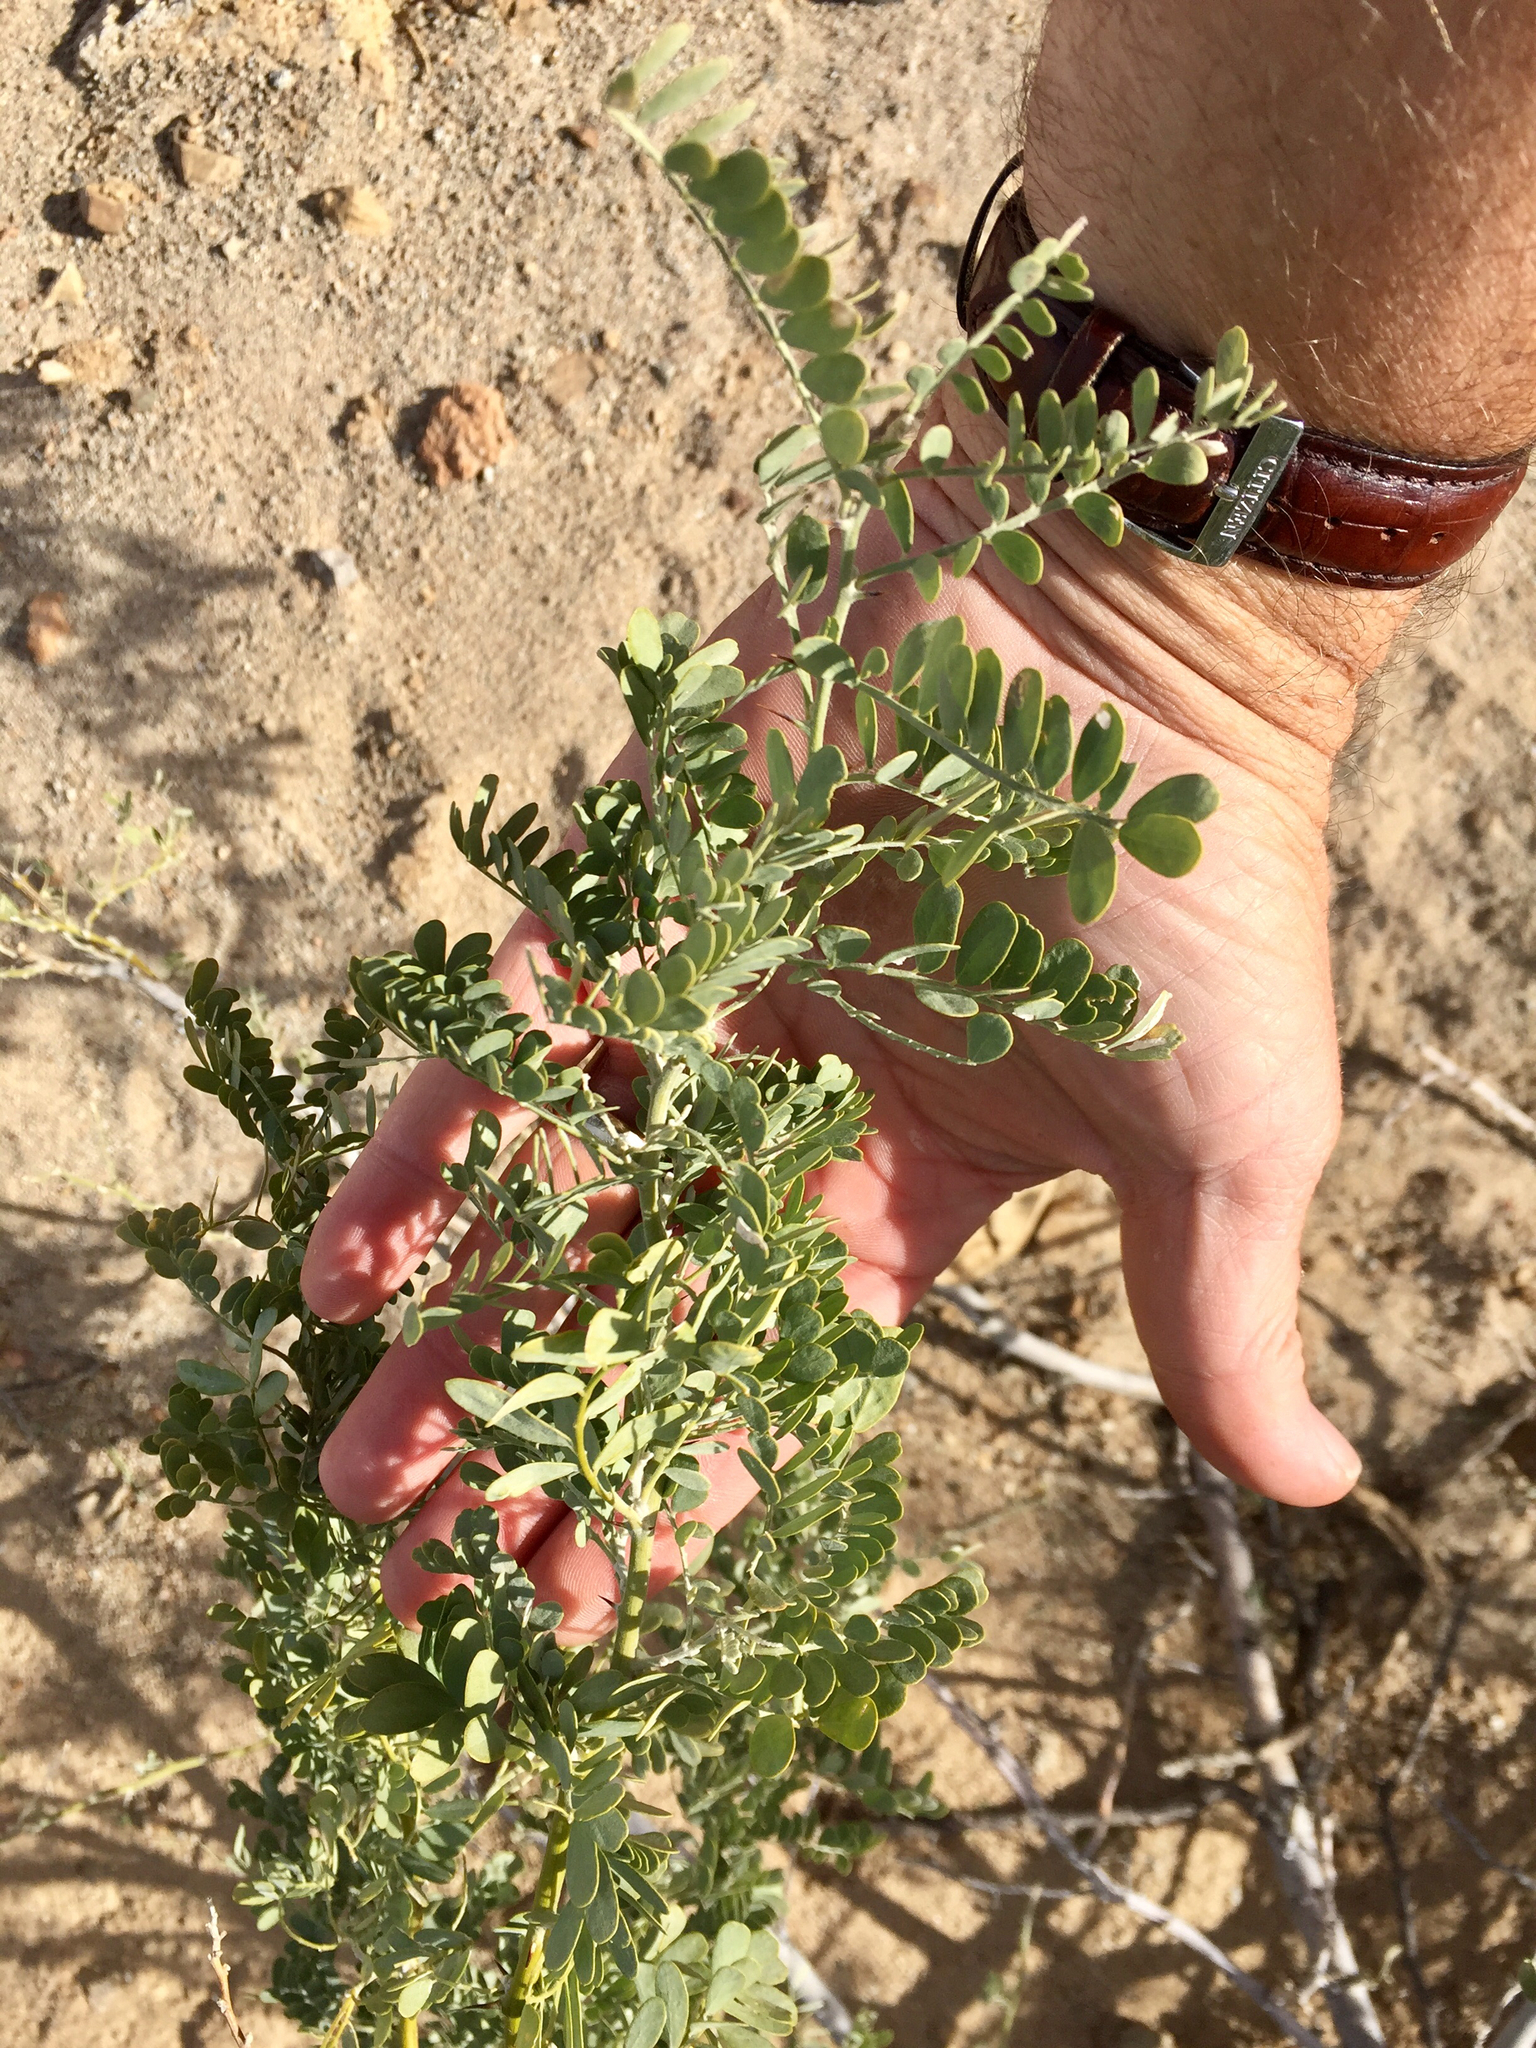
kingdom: Plantae
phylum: Tracheophyta
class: Magnoliopsida
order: Fabales
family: Fabaceae
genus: Olneya
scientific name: Olneya tesota
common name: Desert ironwood
